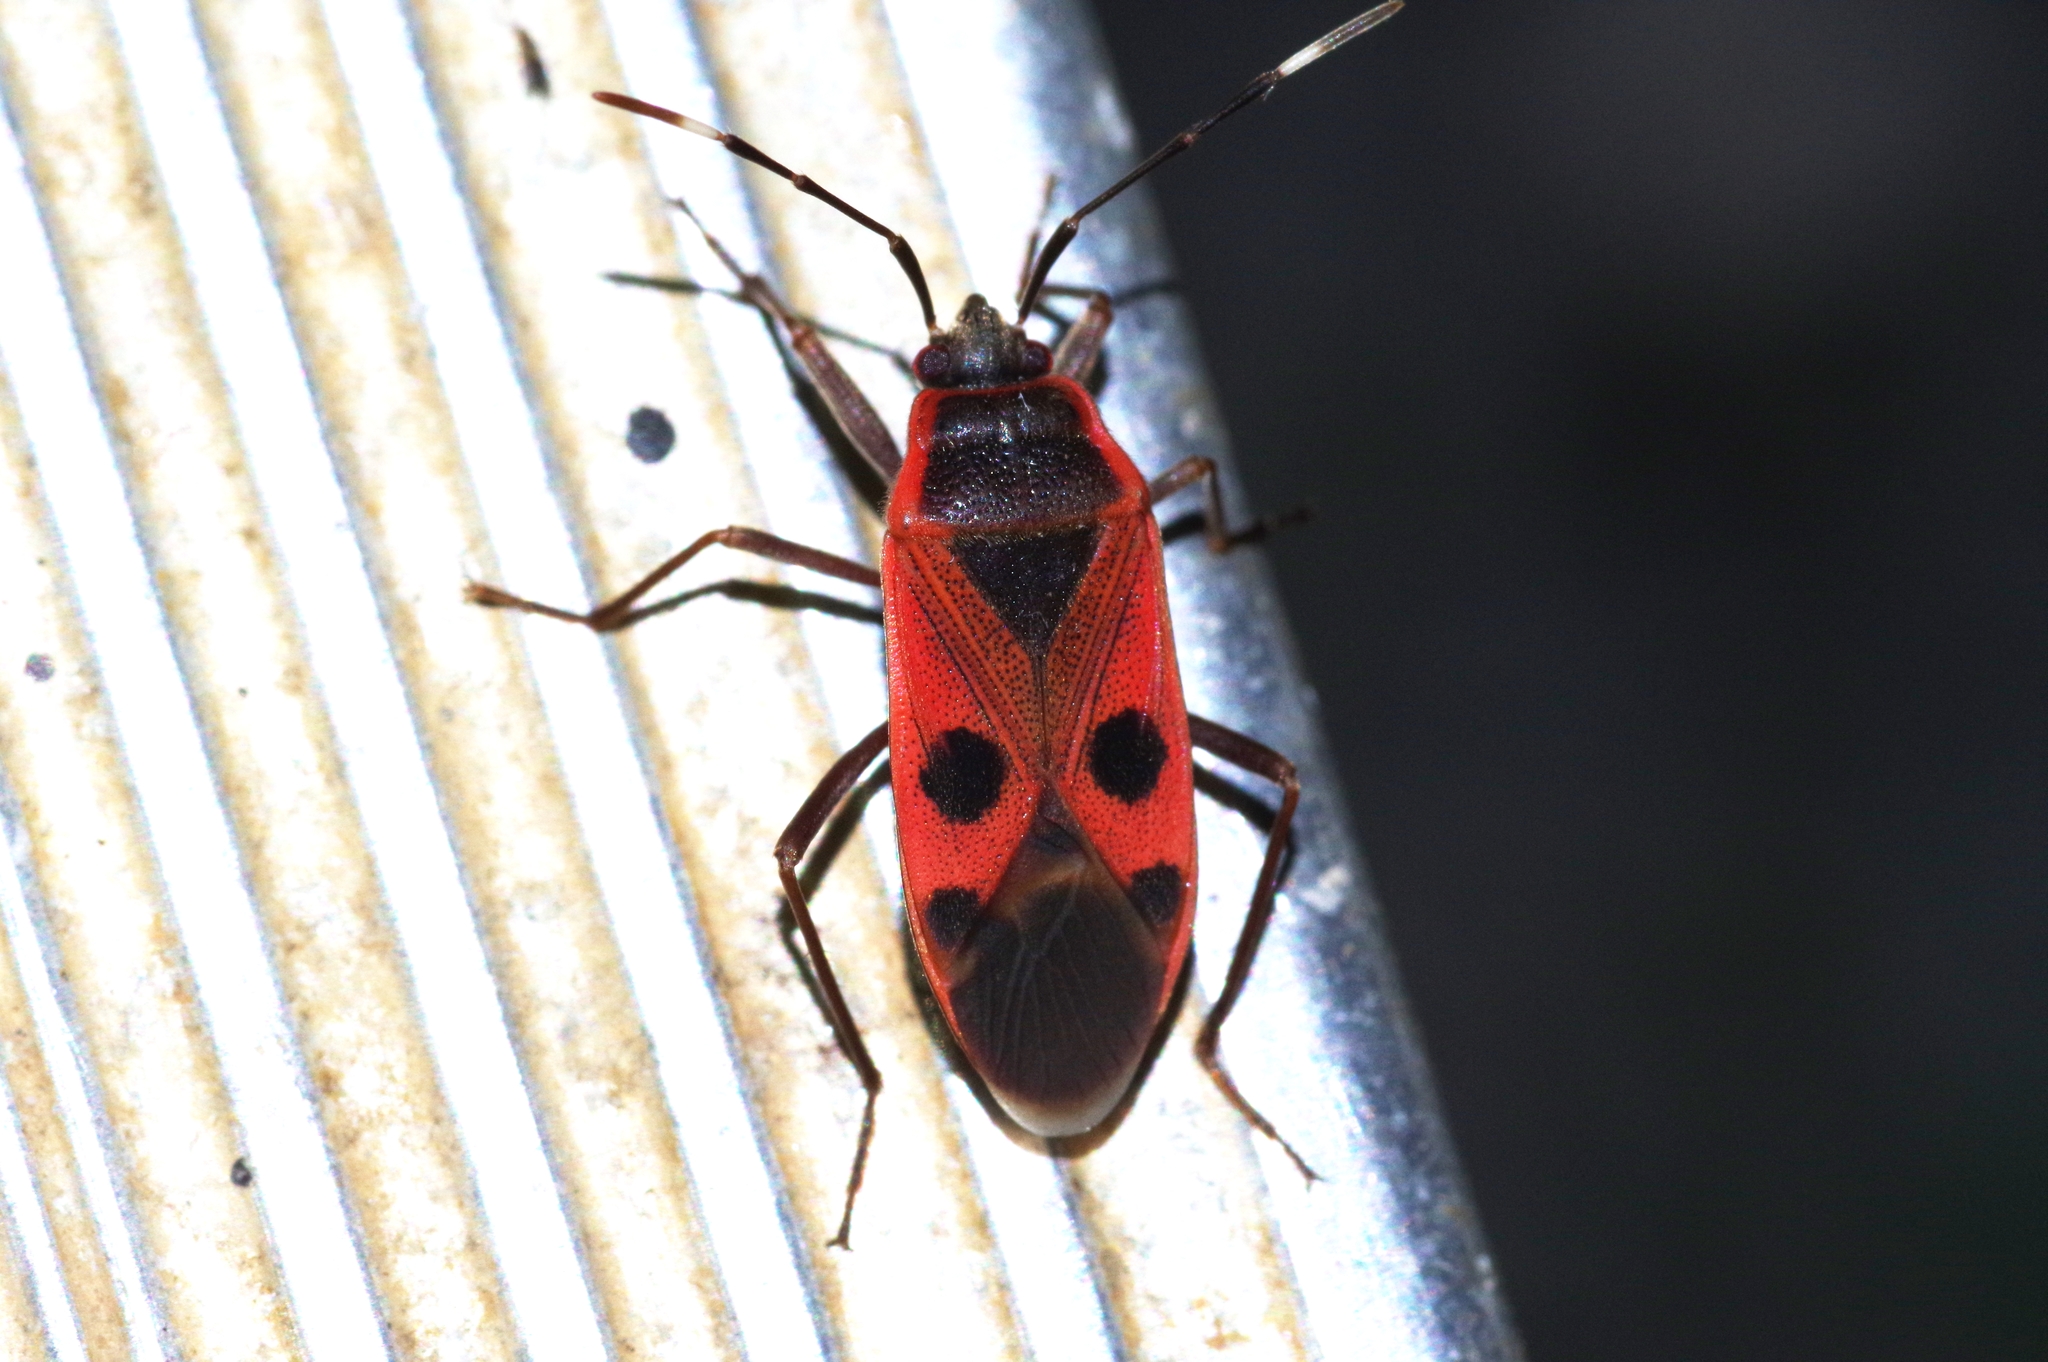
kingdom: Animalia
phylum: Arthropoda
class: Insecta
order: Hemiptera
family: Largidae
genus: Physopelta
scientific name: Physopelta parviceps
